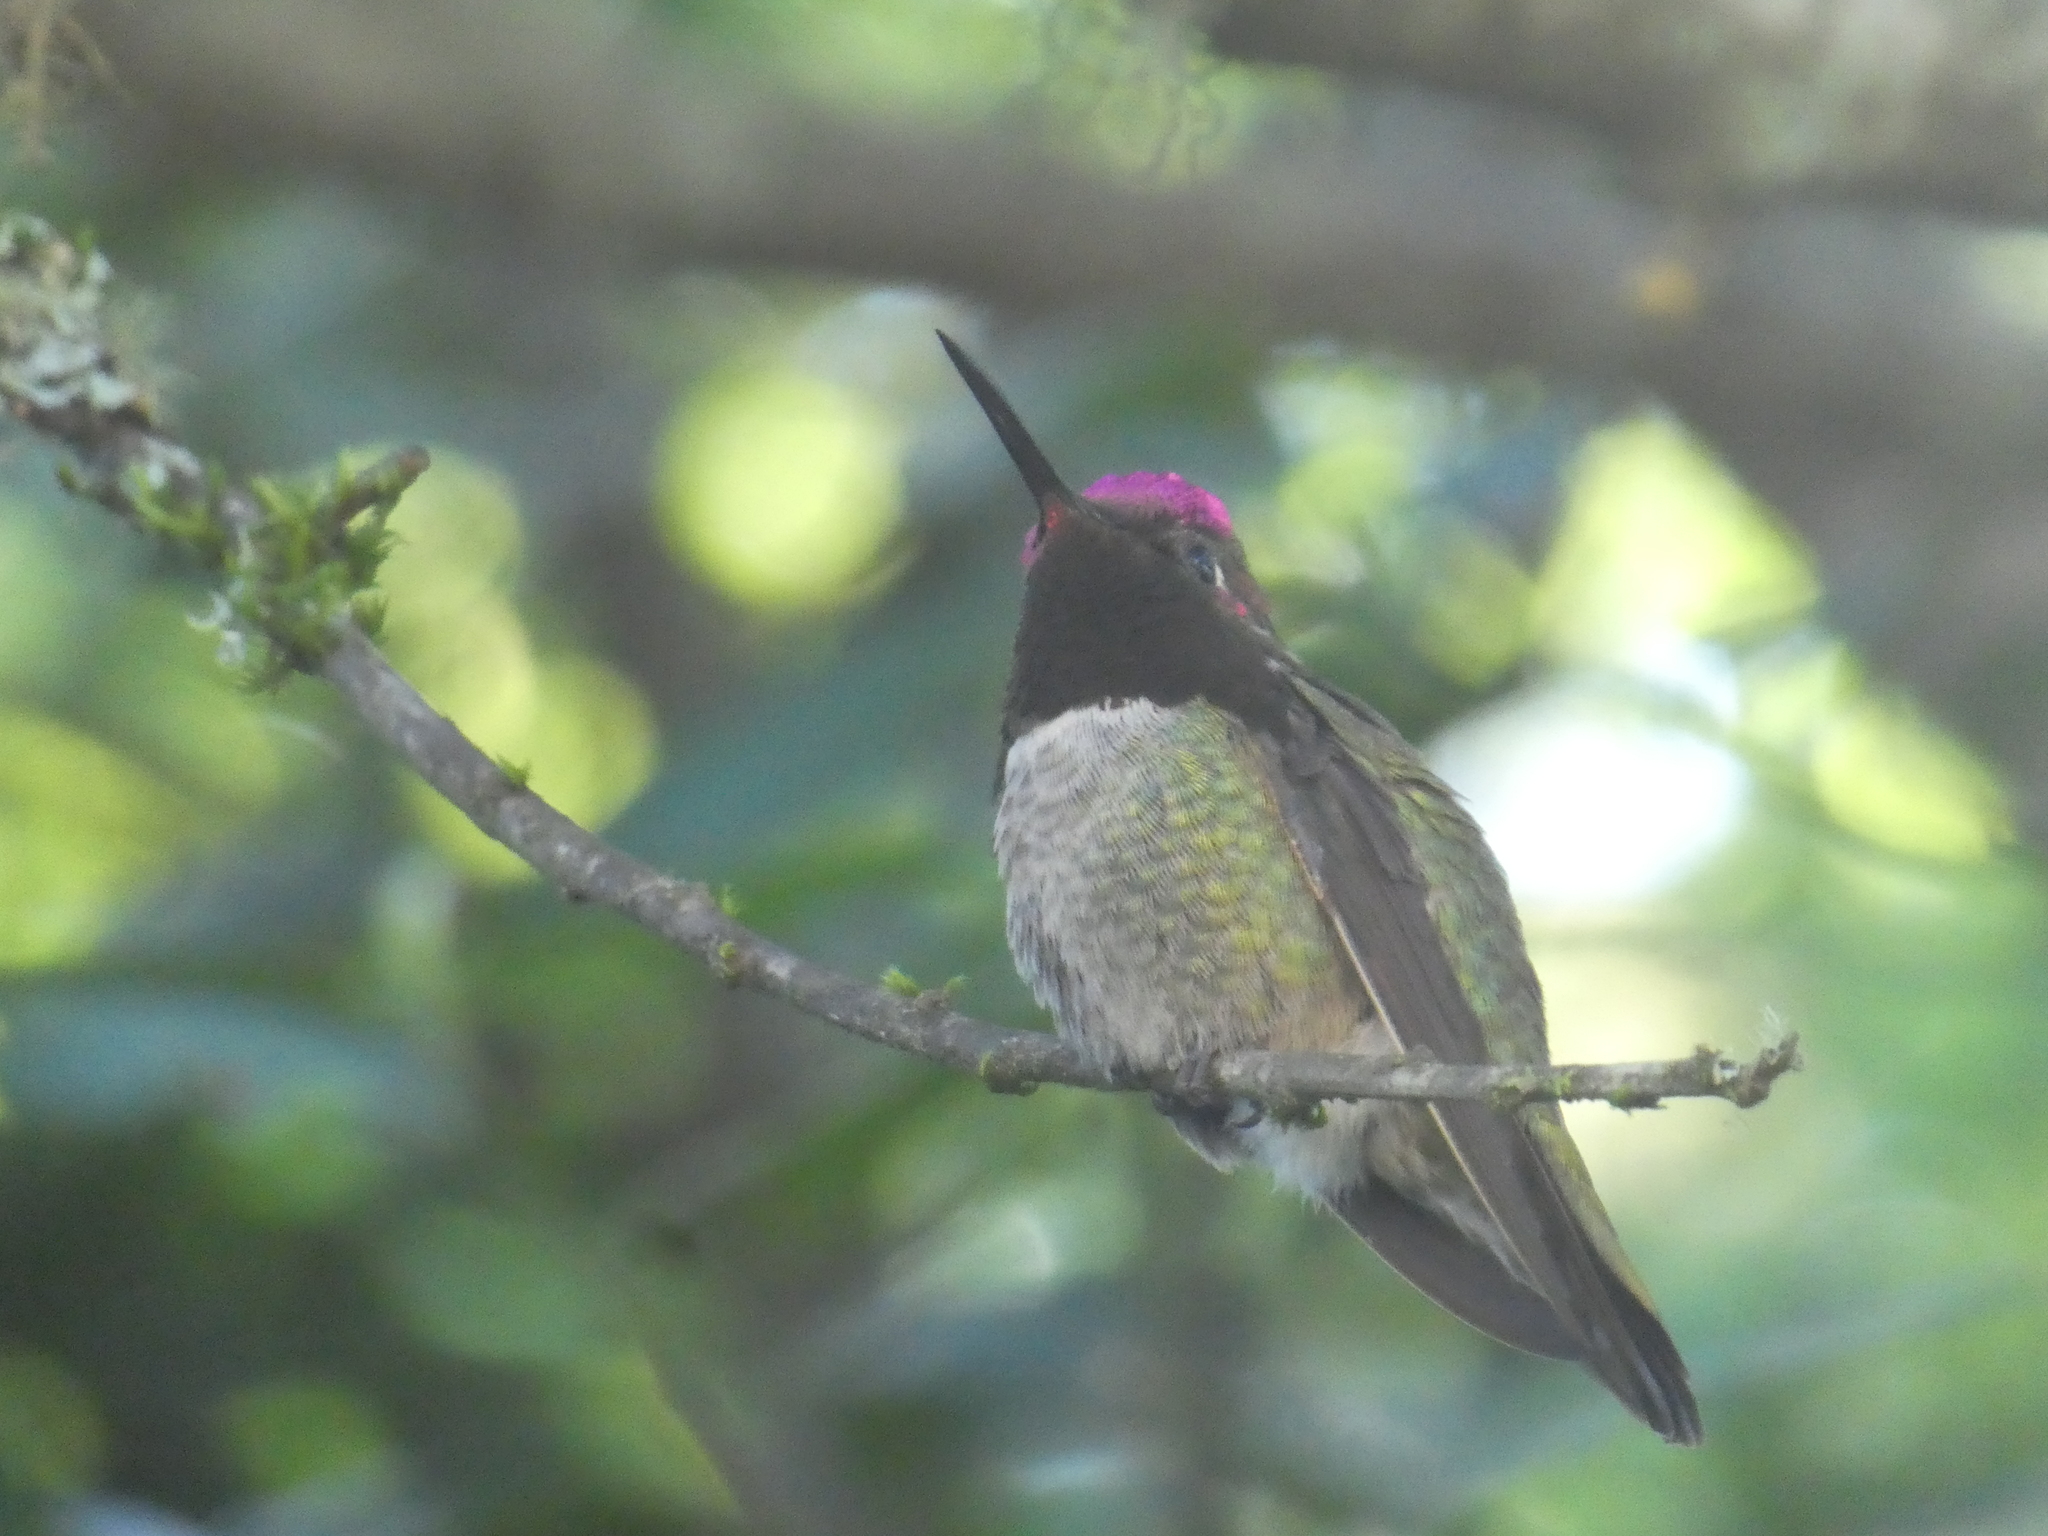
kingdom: Animalia
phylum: Chordata
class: Aves
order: Apodiformes
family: Trochilidae
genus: Calypte
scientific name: Calypte anna
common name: Anna's hummingbird
